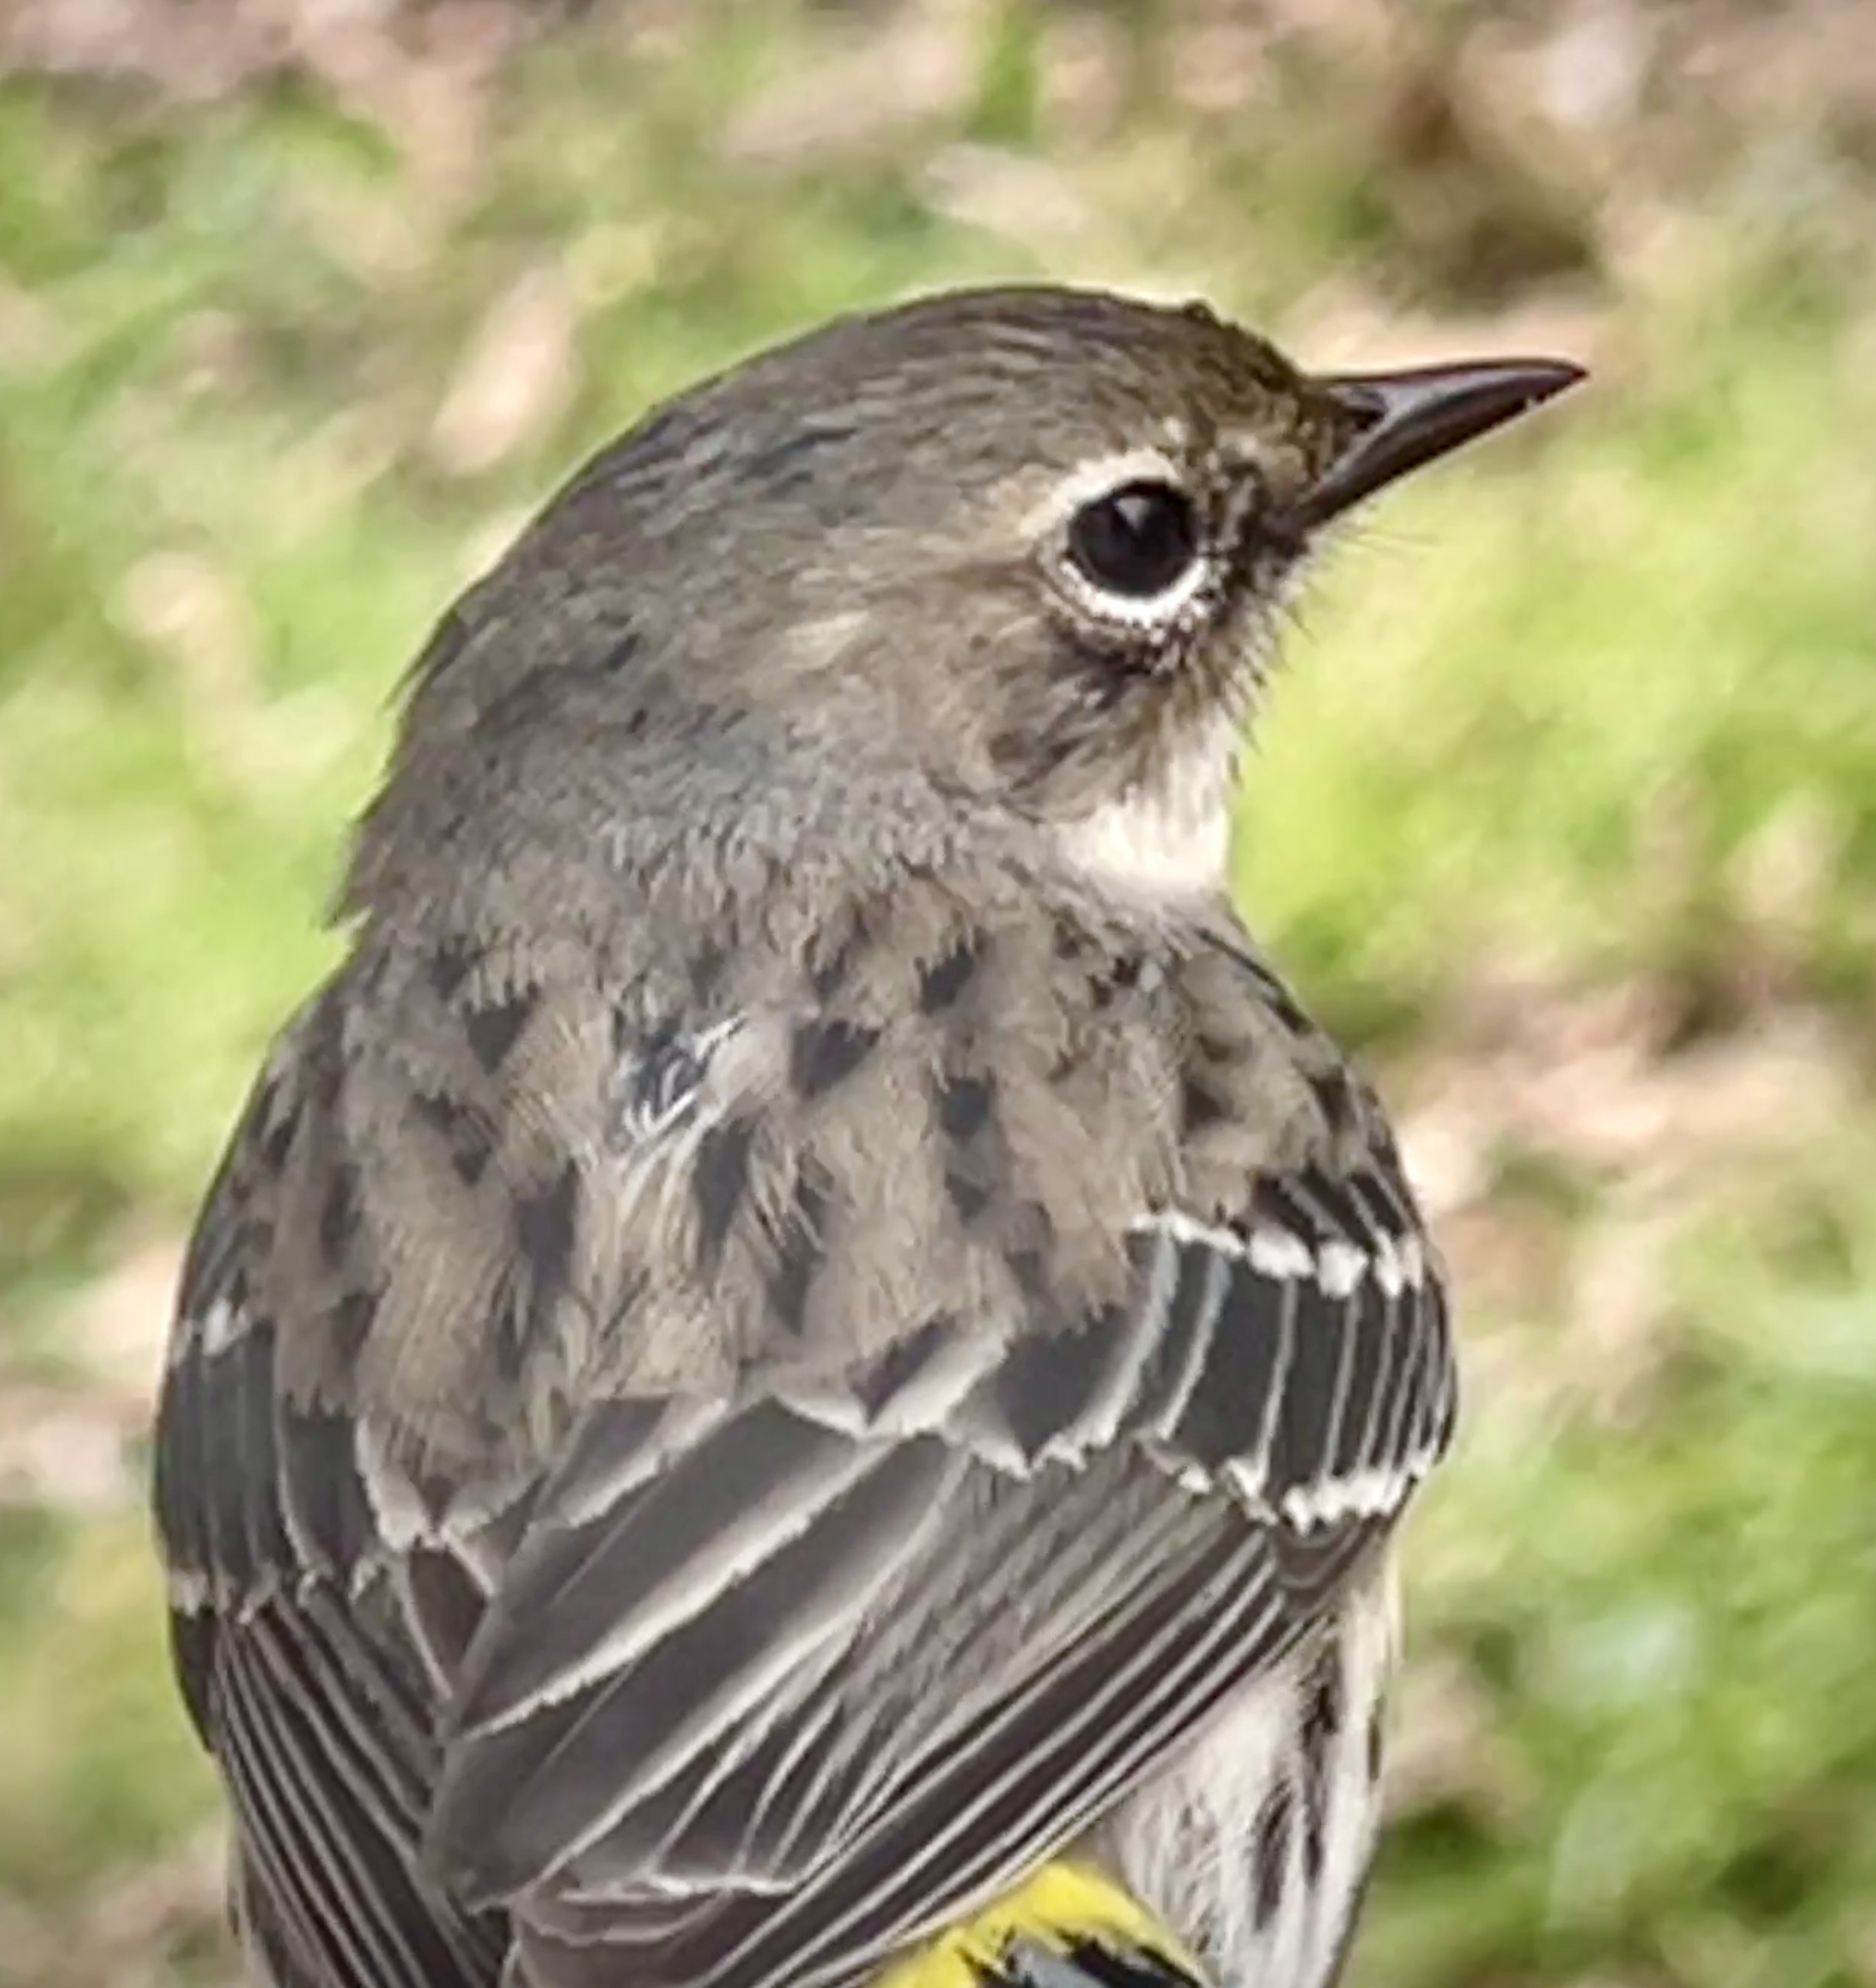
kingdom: Animalia
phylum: Chordata
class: Aves
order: Passeriformes
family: Parulidae
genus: Setophaga
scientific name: Setophaga coronata
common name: Myrtle warbler
